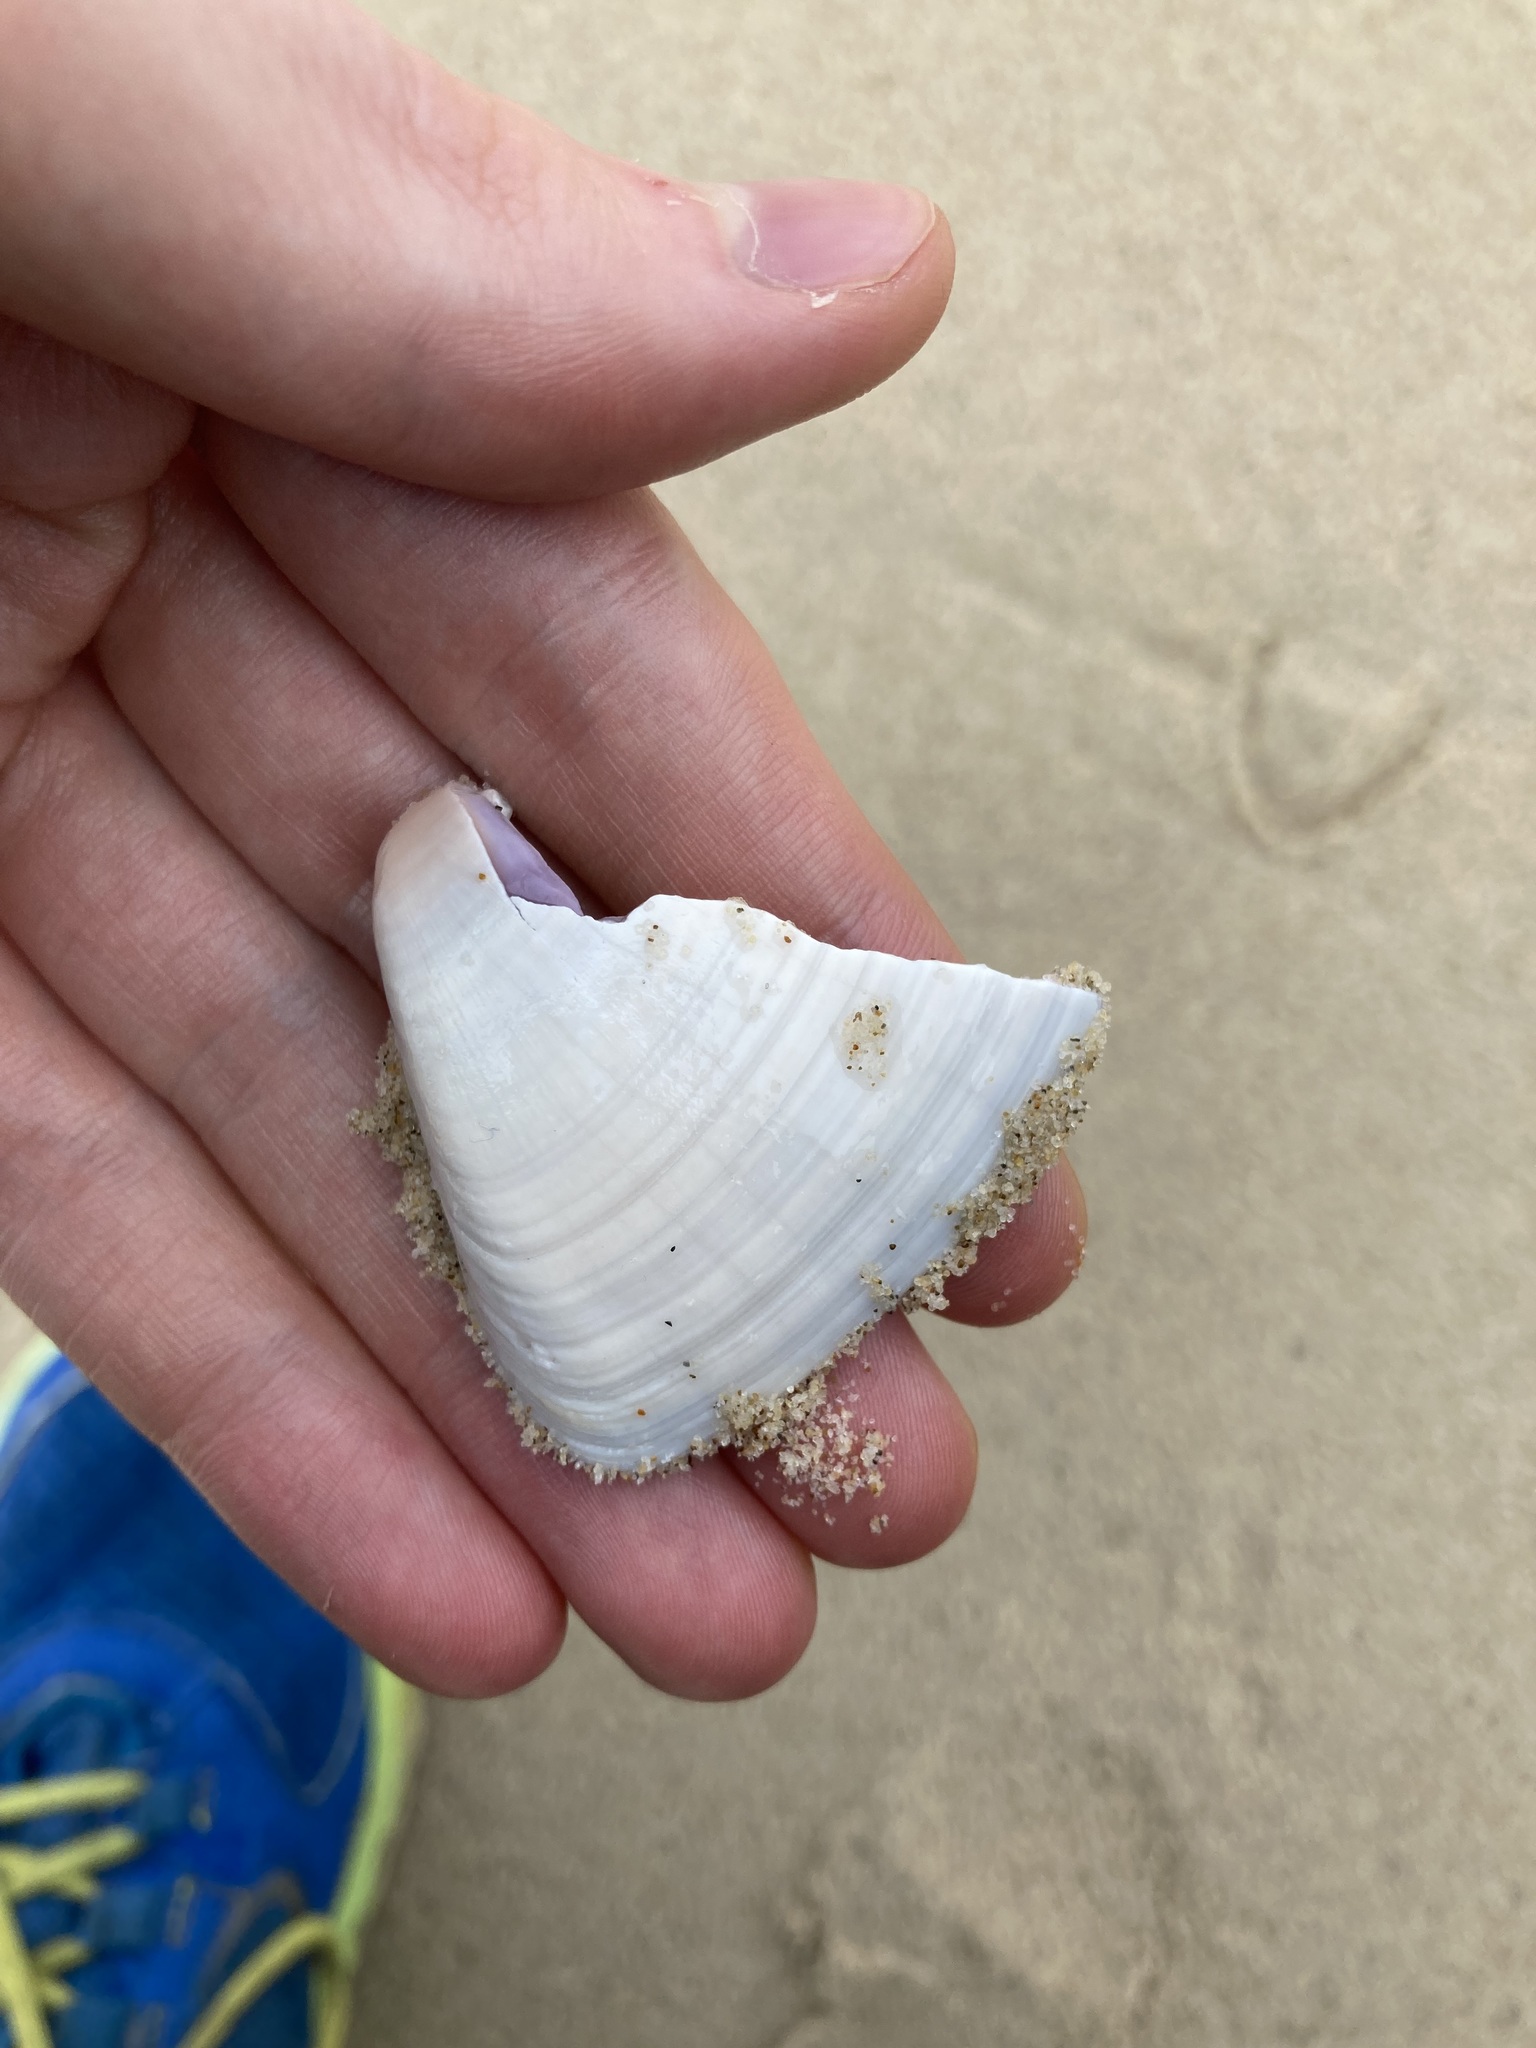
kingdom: Animalia
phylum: Mollusca
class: Bivalvia
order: Cardiida
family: Donacidae
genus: Latona
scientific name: Latona deltoides
